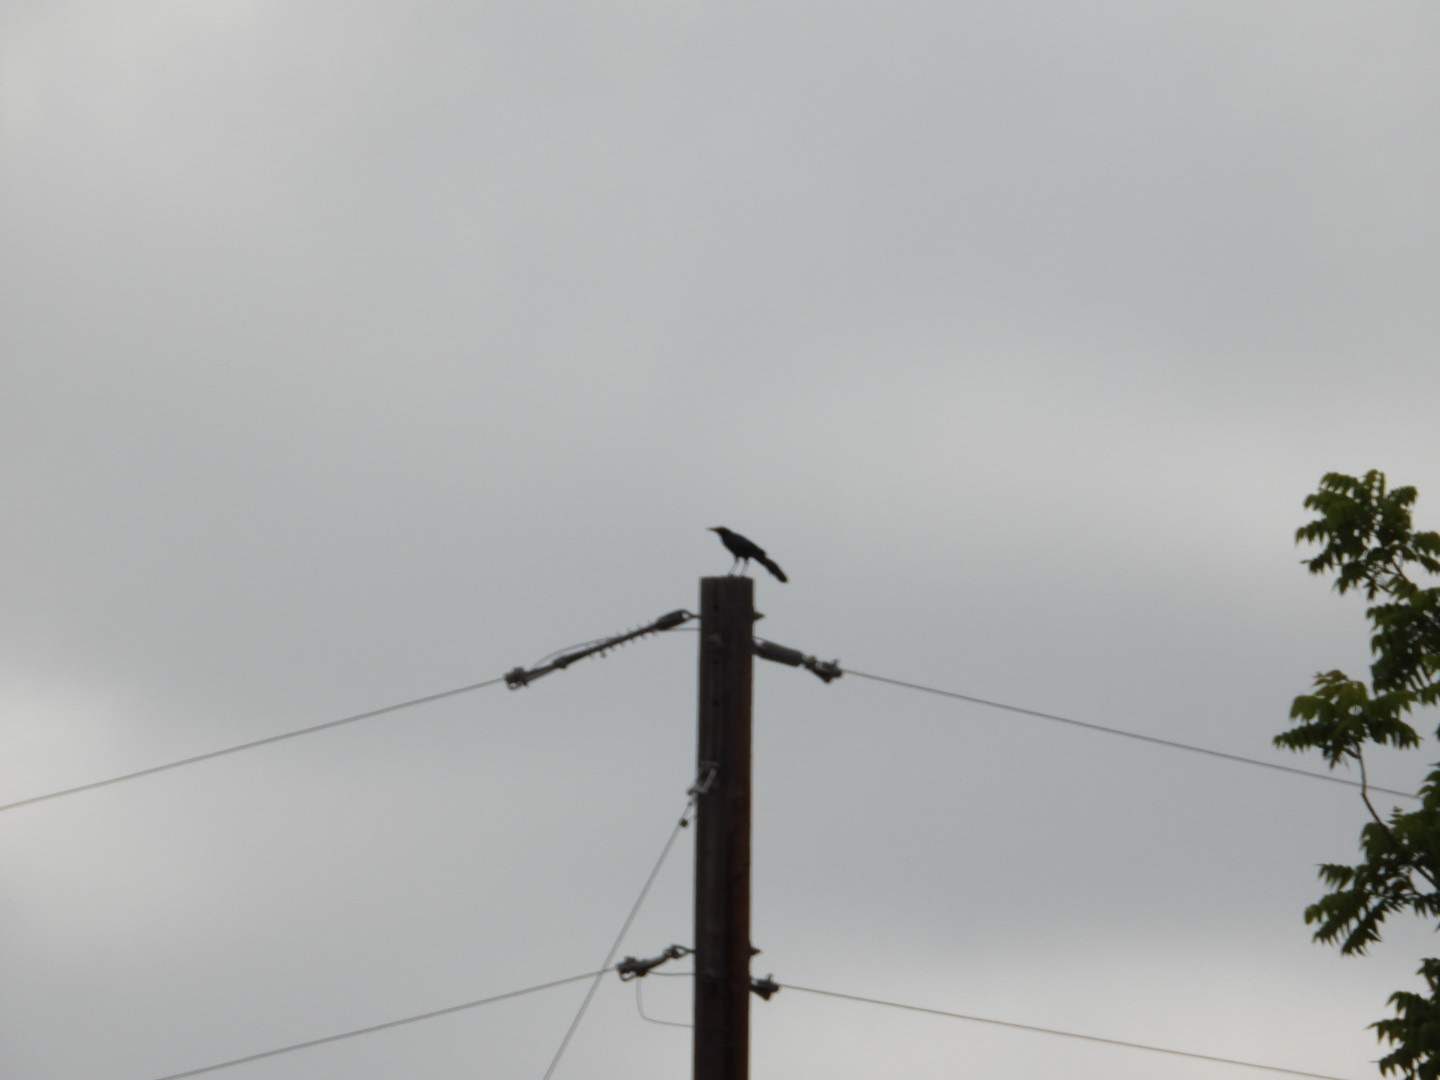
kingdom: Animalia
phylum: Chordata
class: Aves
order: Passeriformes
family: Icteridae
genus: Quiscalus
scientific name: Quiscalus mexicanus
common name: Great-tailed grackle
